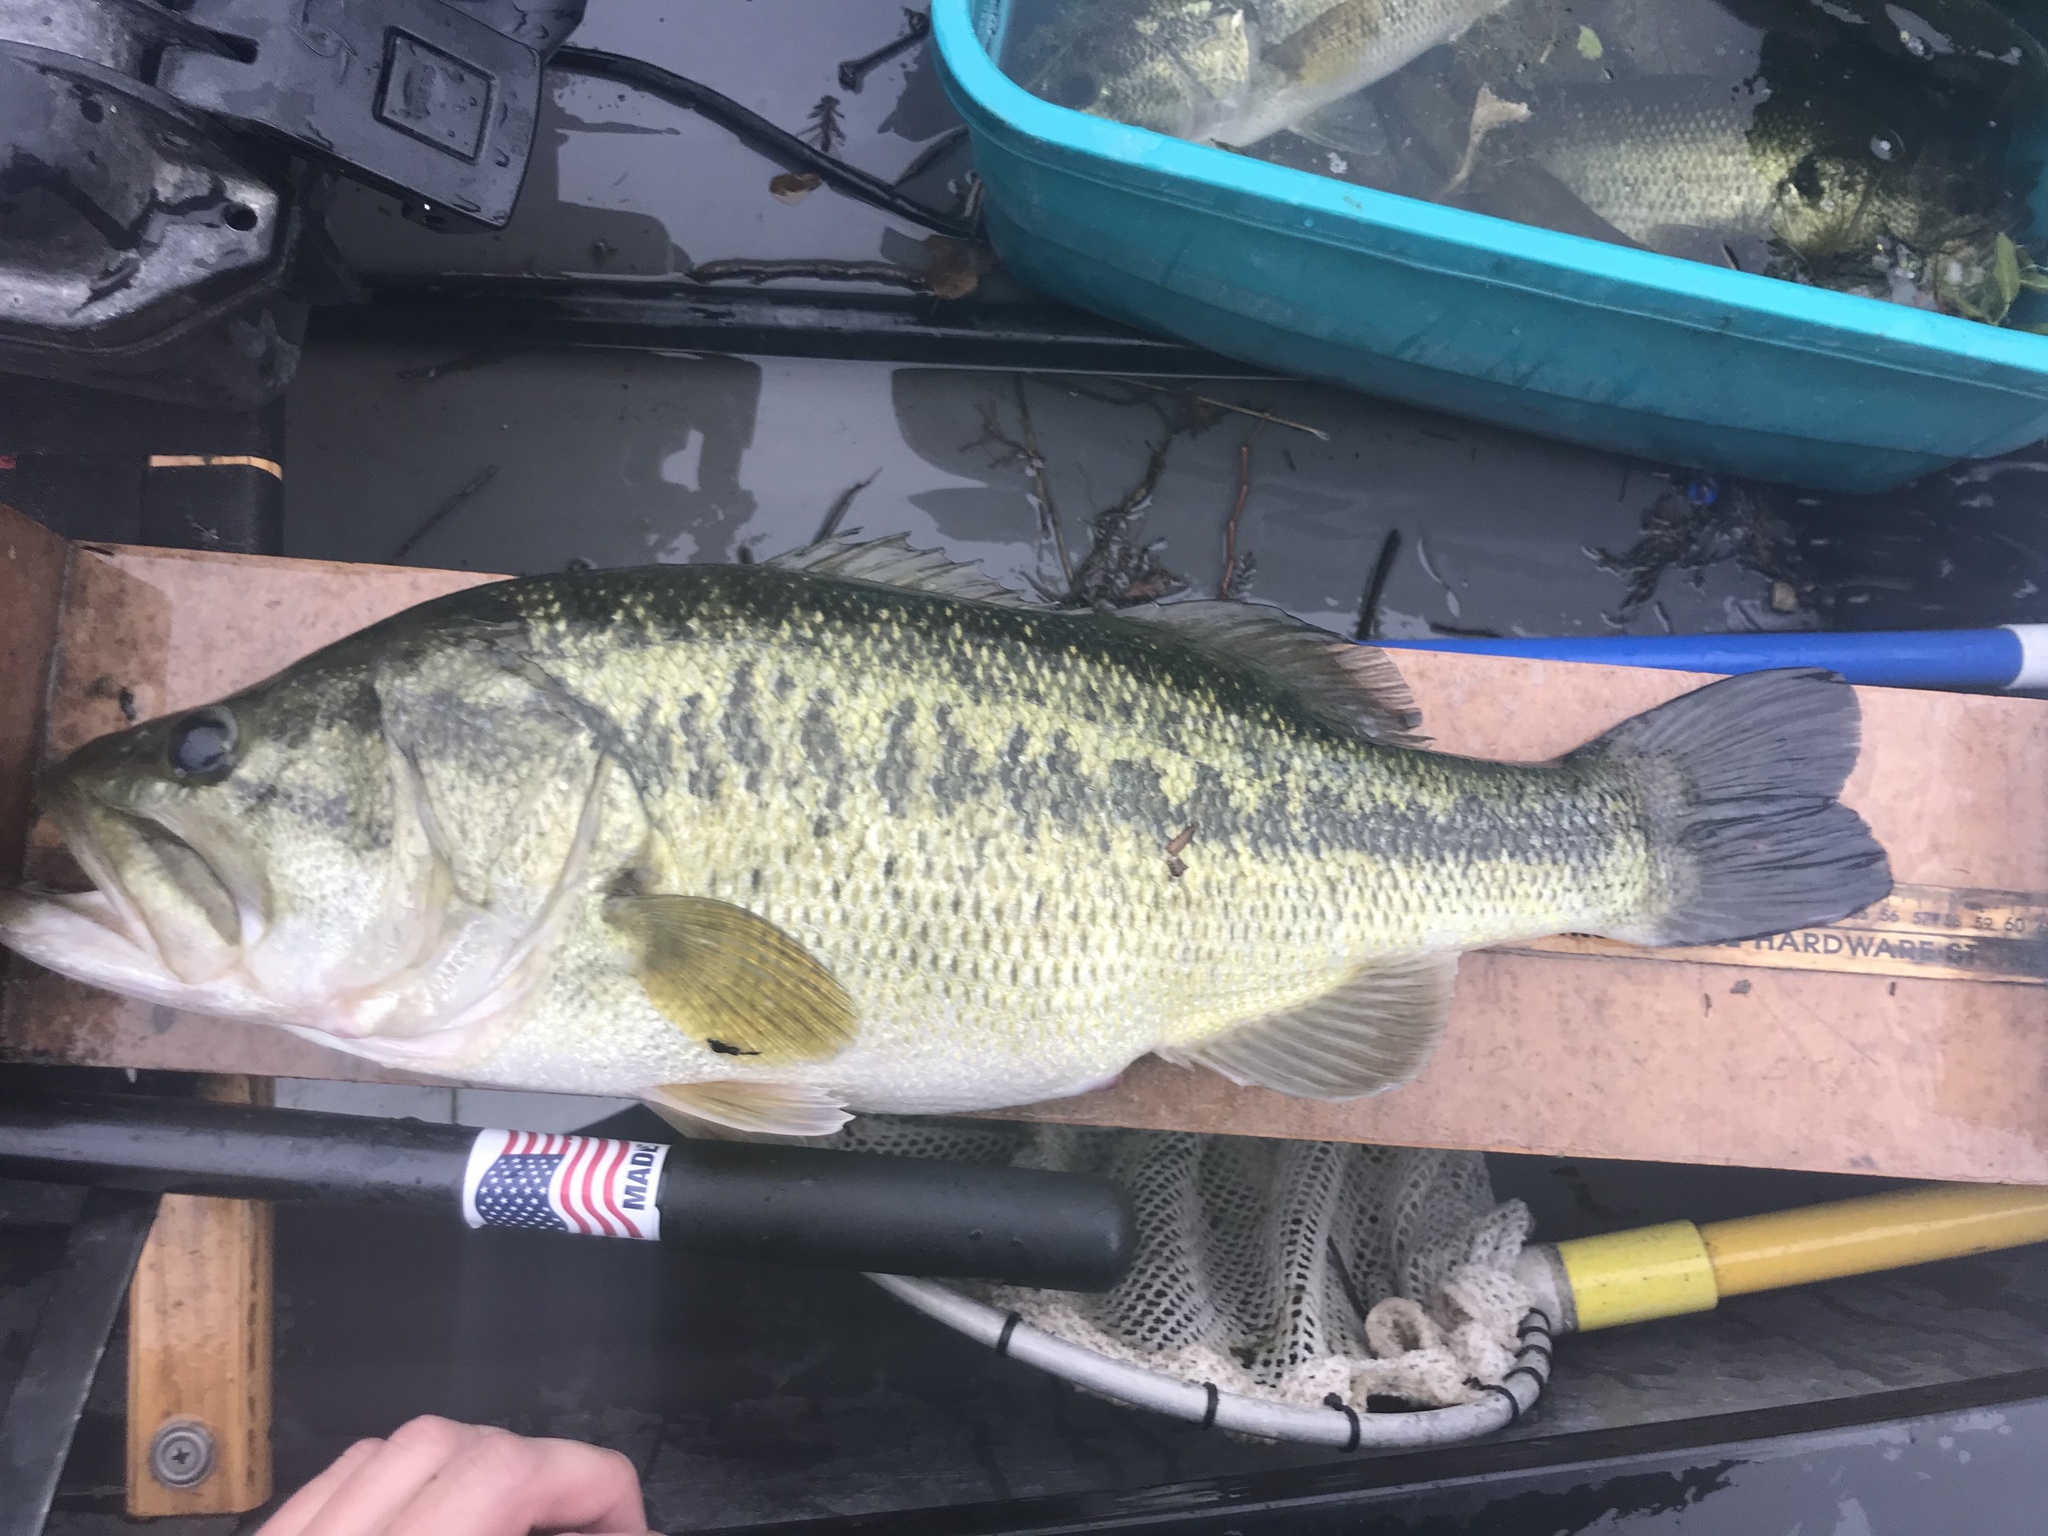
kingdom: Animalia
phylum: Chordata
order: Perciformes
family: Centrarchidae
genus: Micropterus
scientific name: Micropterus
